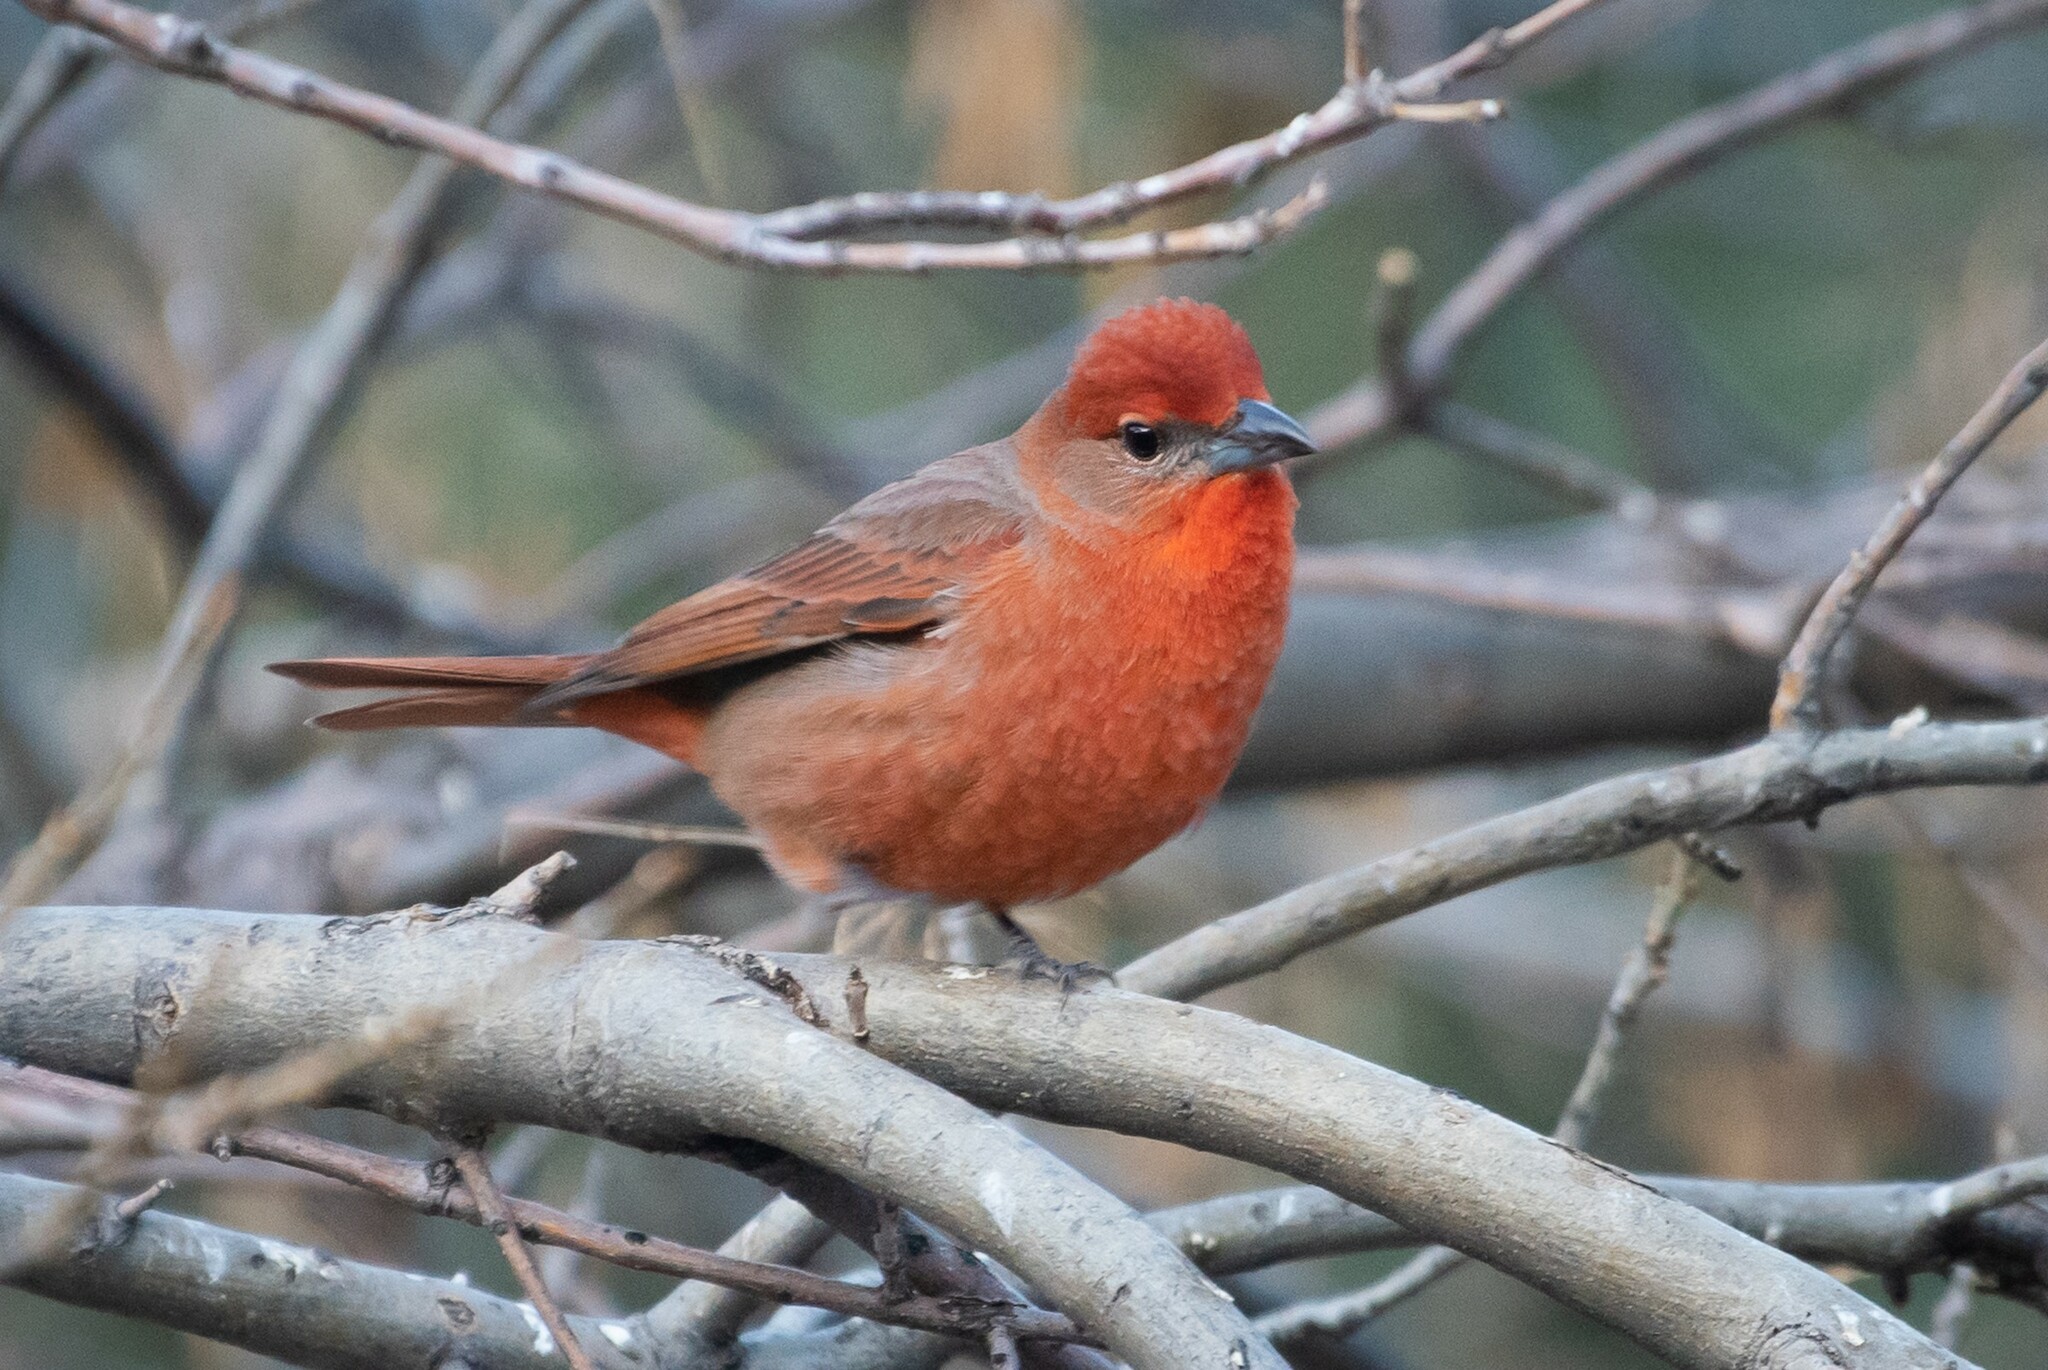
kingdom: Animalia
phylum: Chordata
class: Aves
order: Passeriformes
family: Cardinalidae
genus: Piranga
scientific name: Piranga flava
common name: Red tanager
